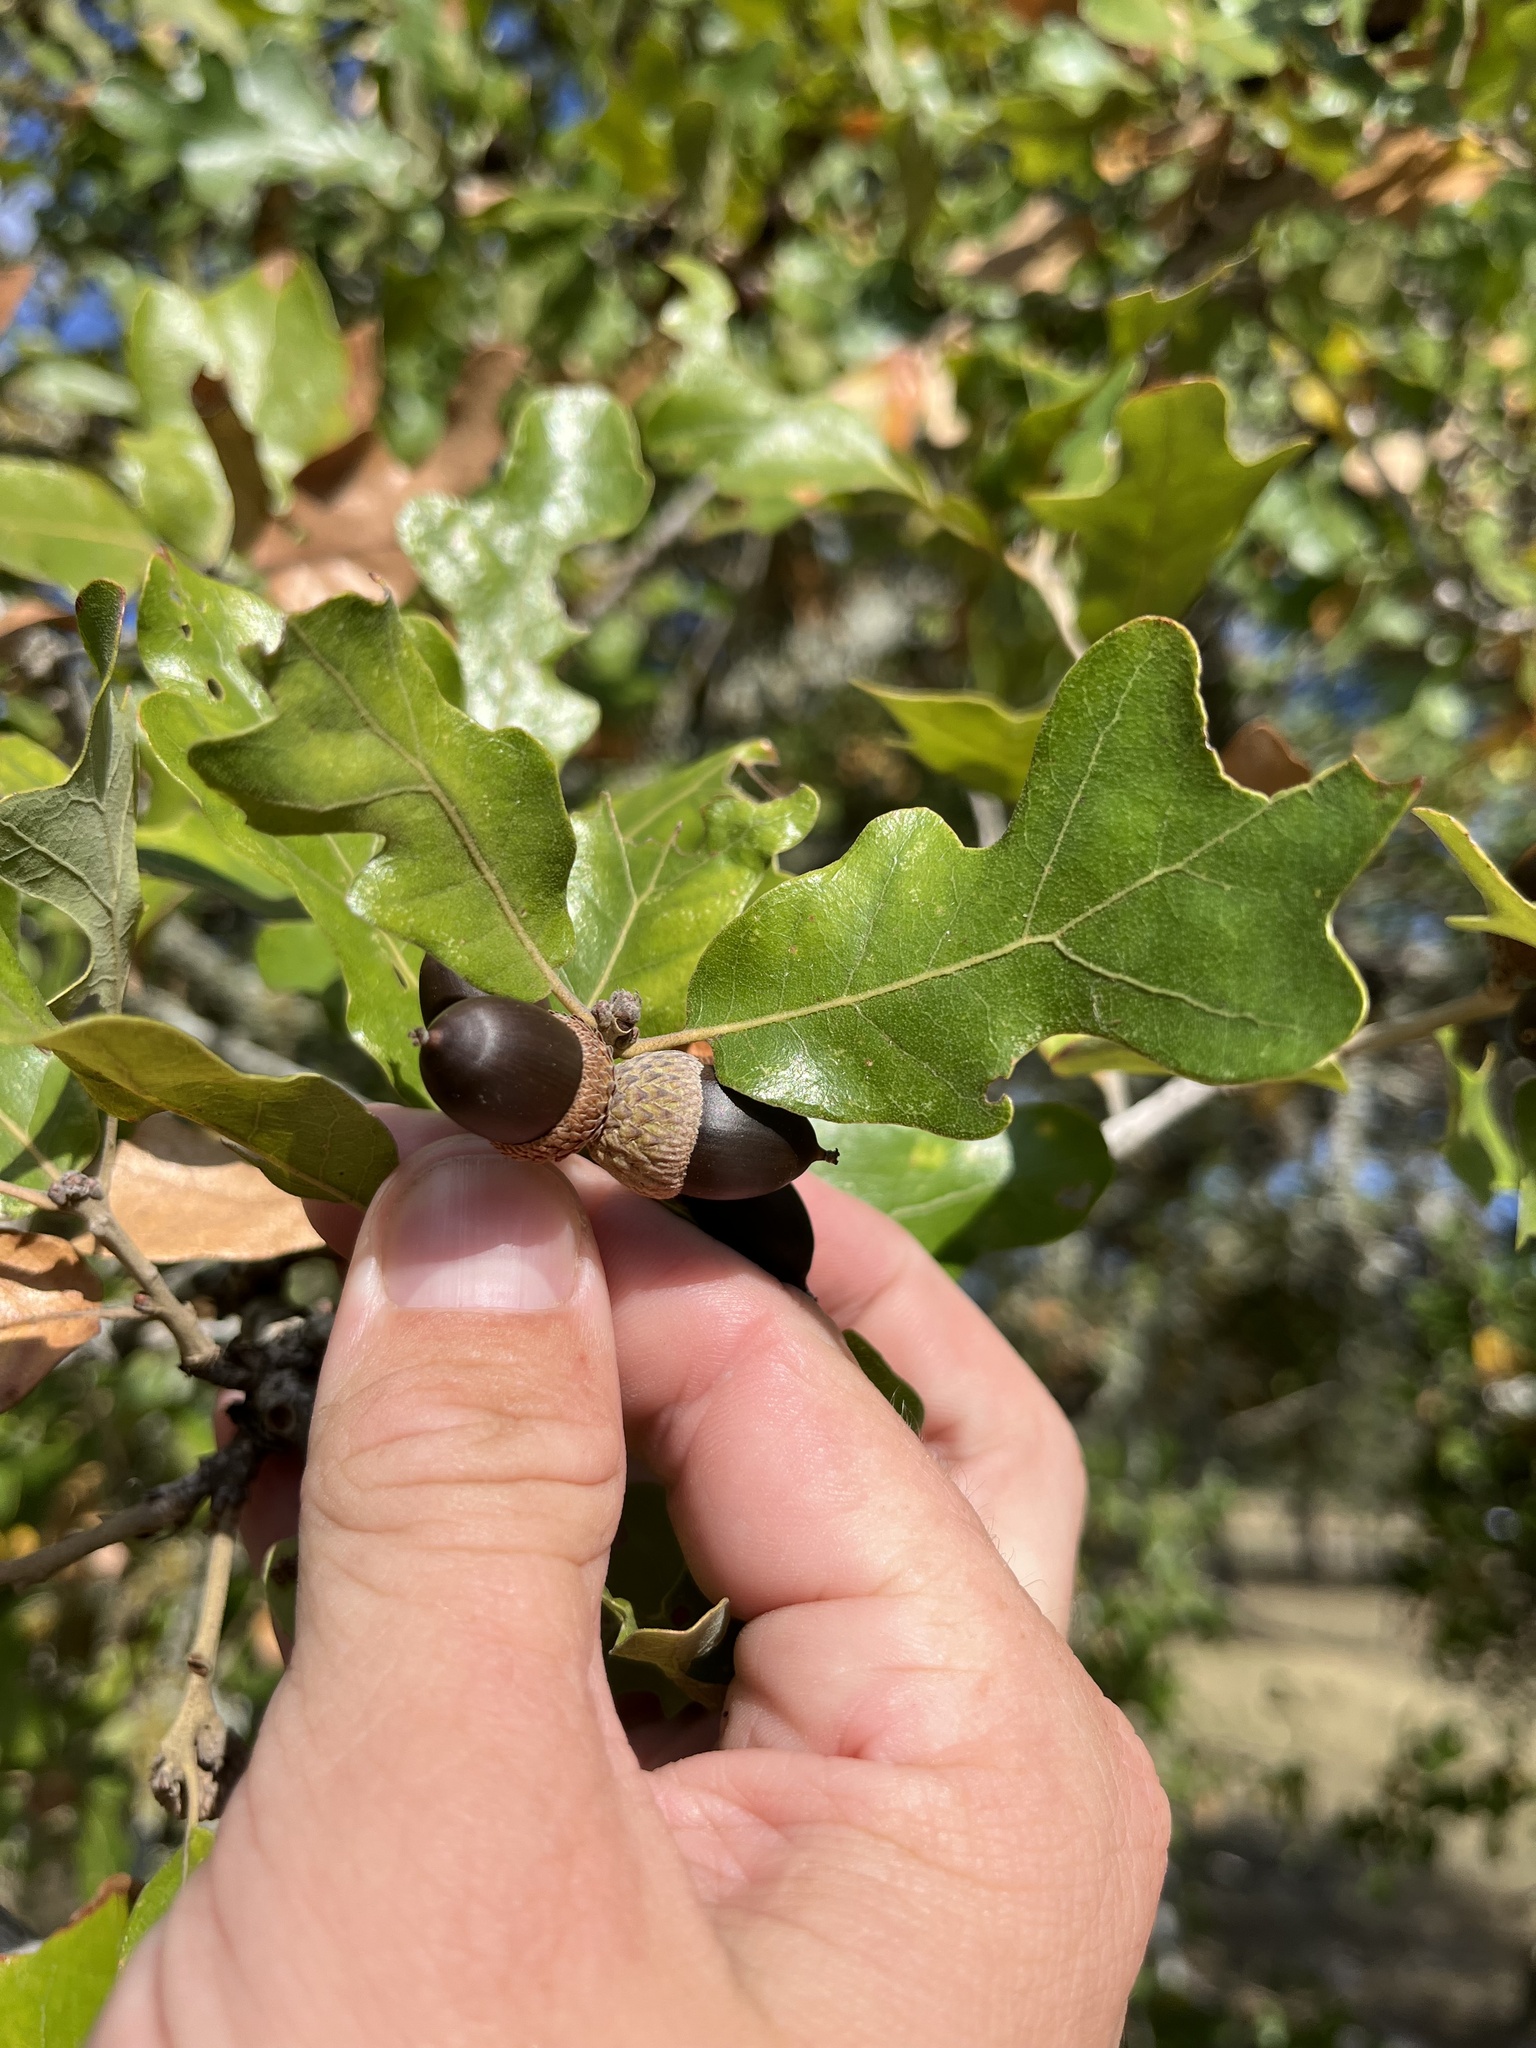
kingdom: Plantae
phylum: Tracheophyta
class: Magnoliopsida
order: Fagales
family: Fagaceae
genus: Quercus
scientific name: Quercus stellata
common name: Post oak
